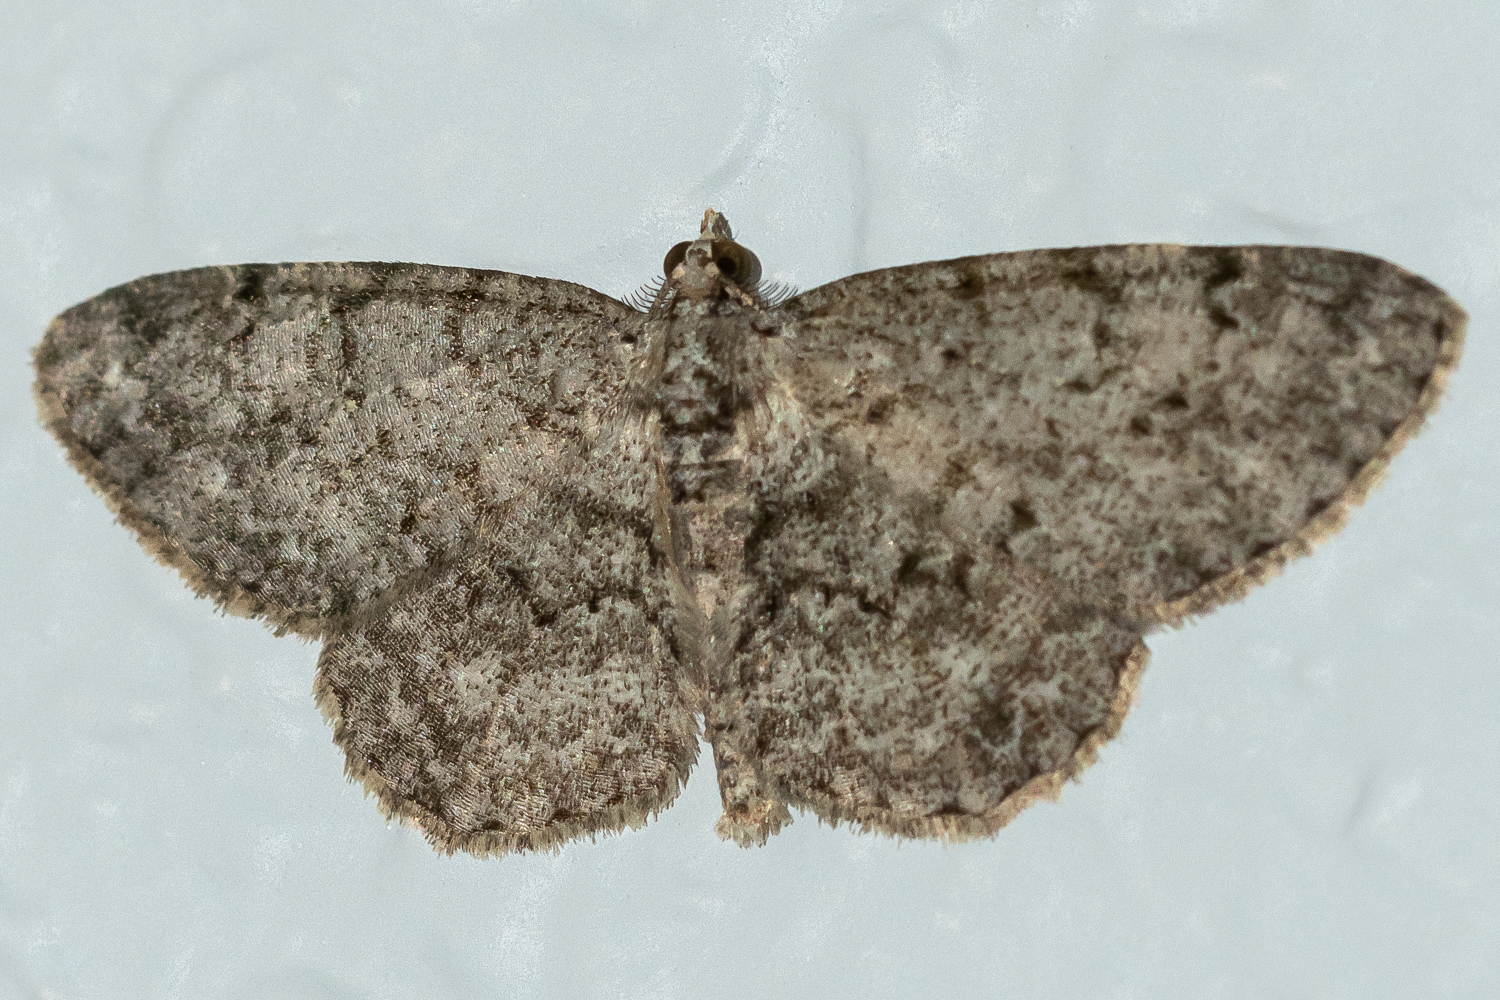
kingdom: Animalia
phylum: Arthropoda
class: Insecta
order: Lepidoptera
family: Geometridae
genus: Protoboarmia
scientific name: Protoboarmia porcelaria
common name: Porcelain gray
